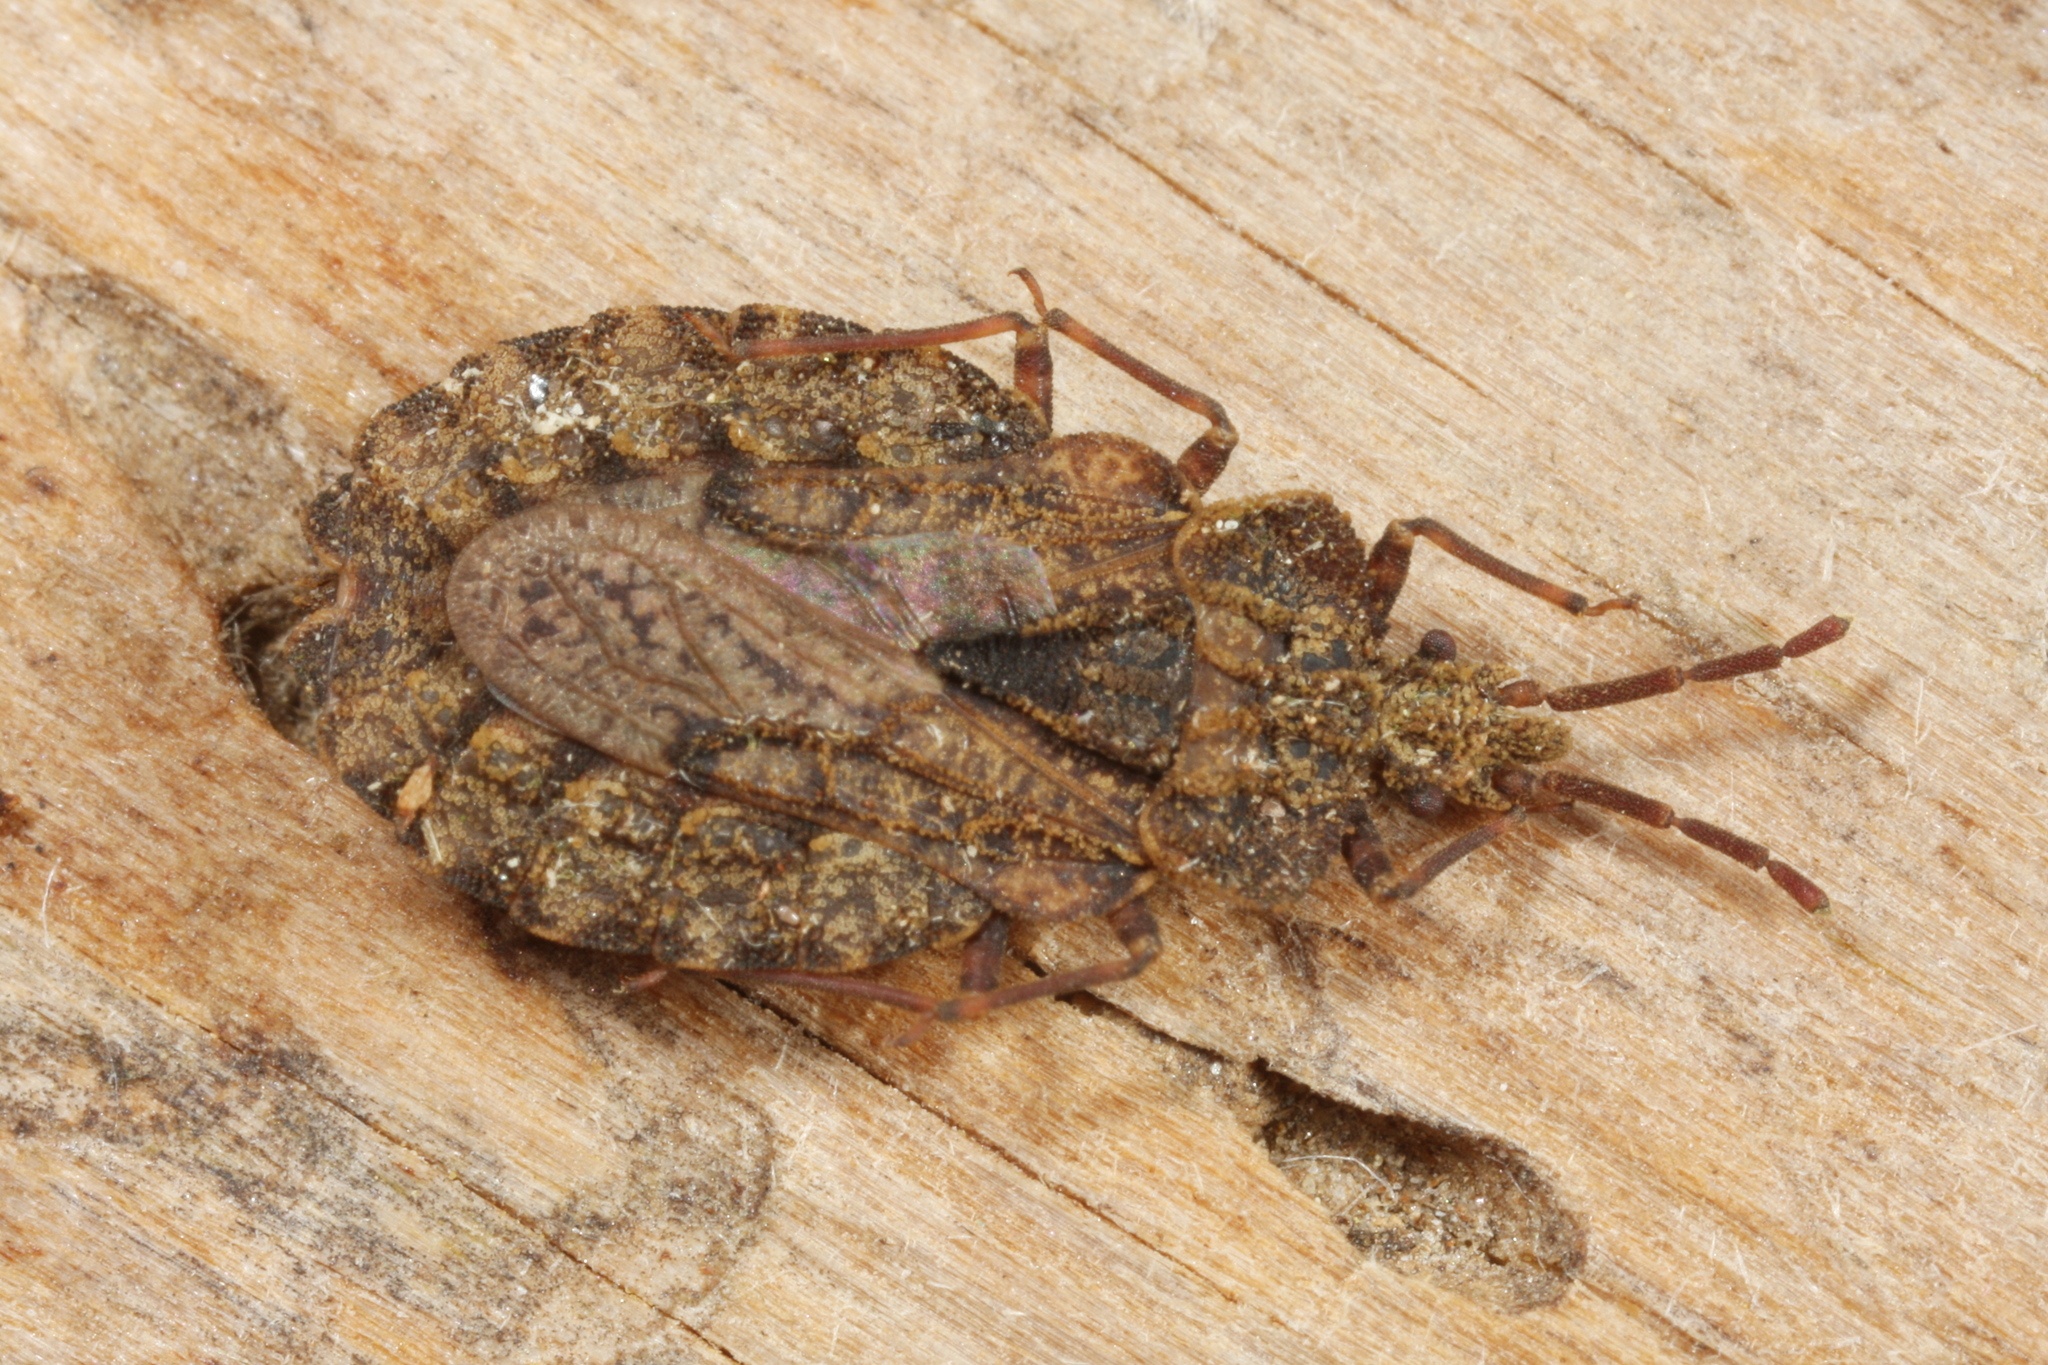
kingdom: Animalia
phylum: Arthropoda
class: Insecta
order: Hemiptera
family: Aradidae
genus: Aradus
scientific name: Aradus conspicuus
